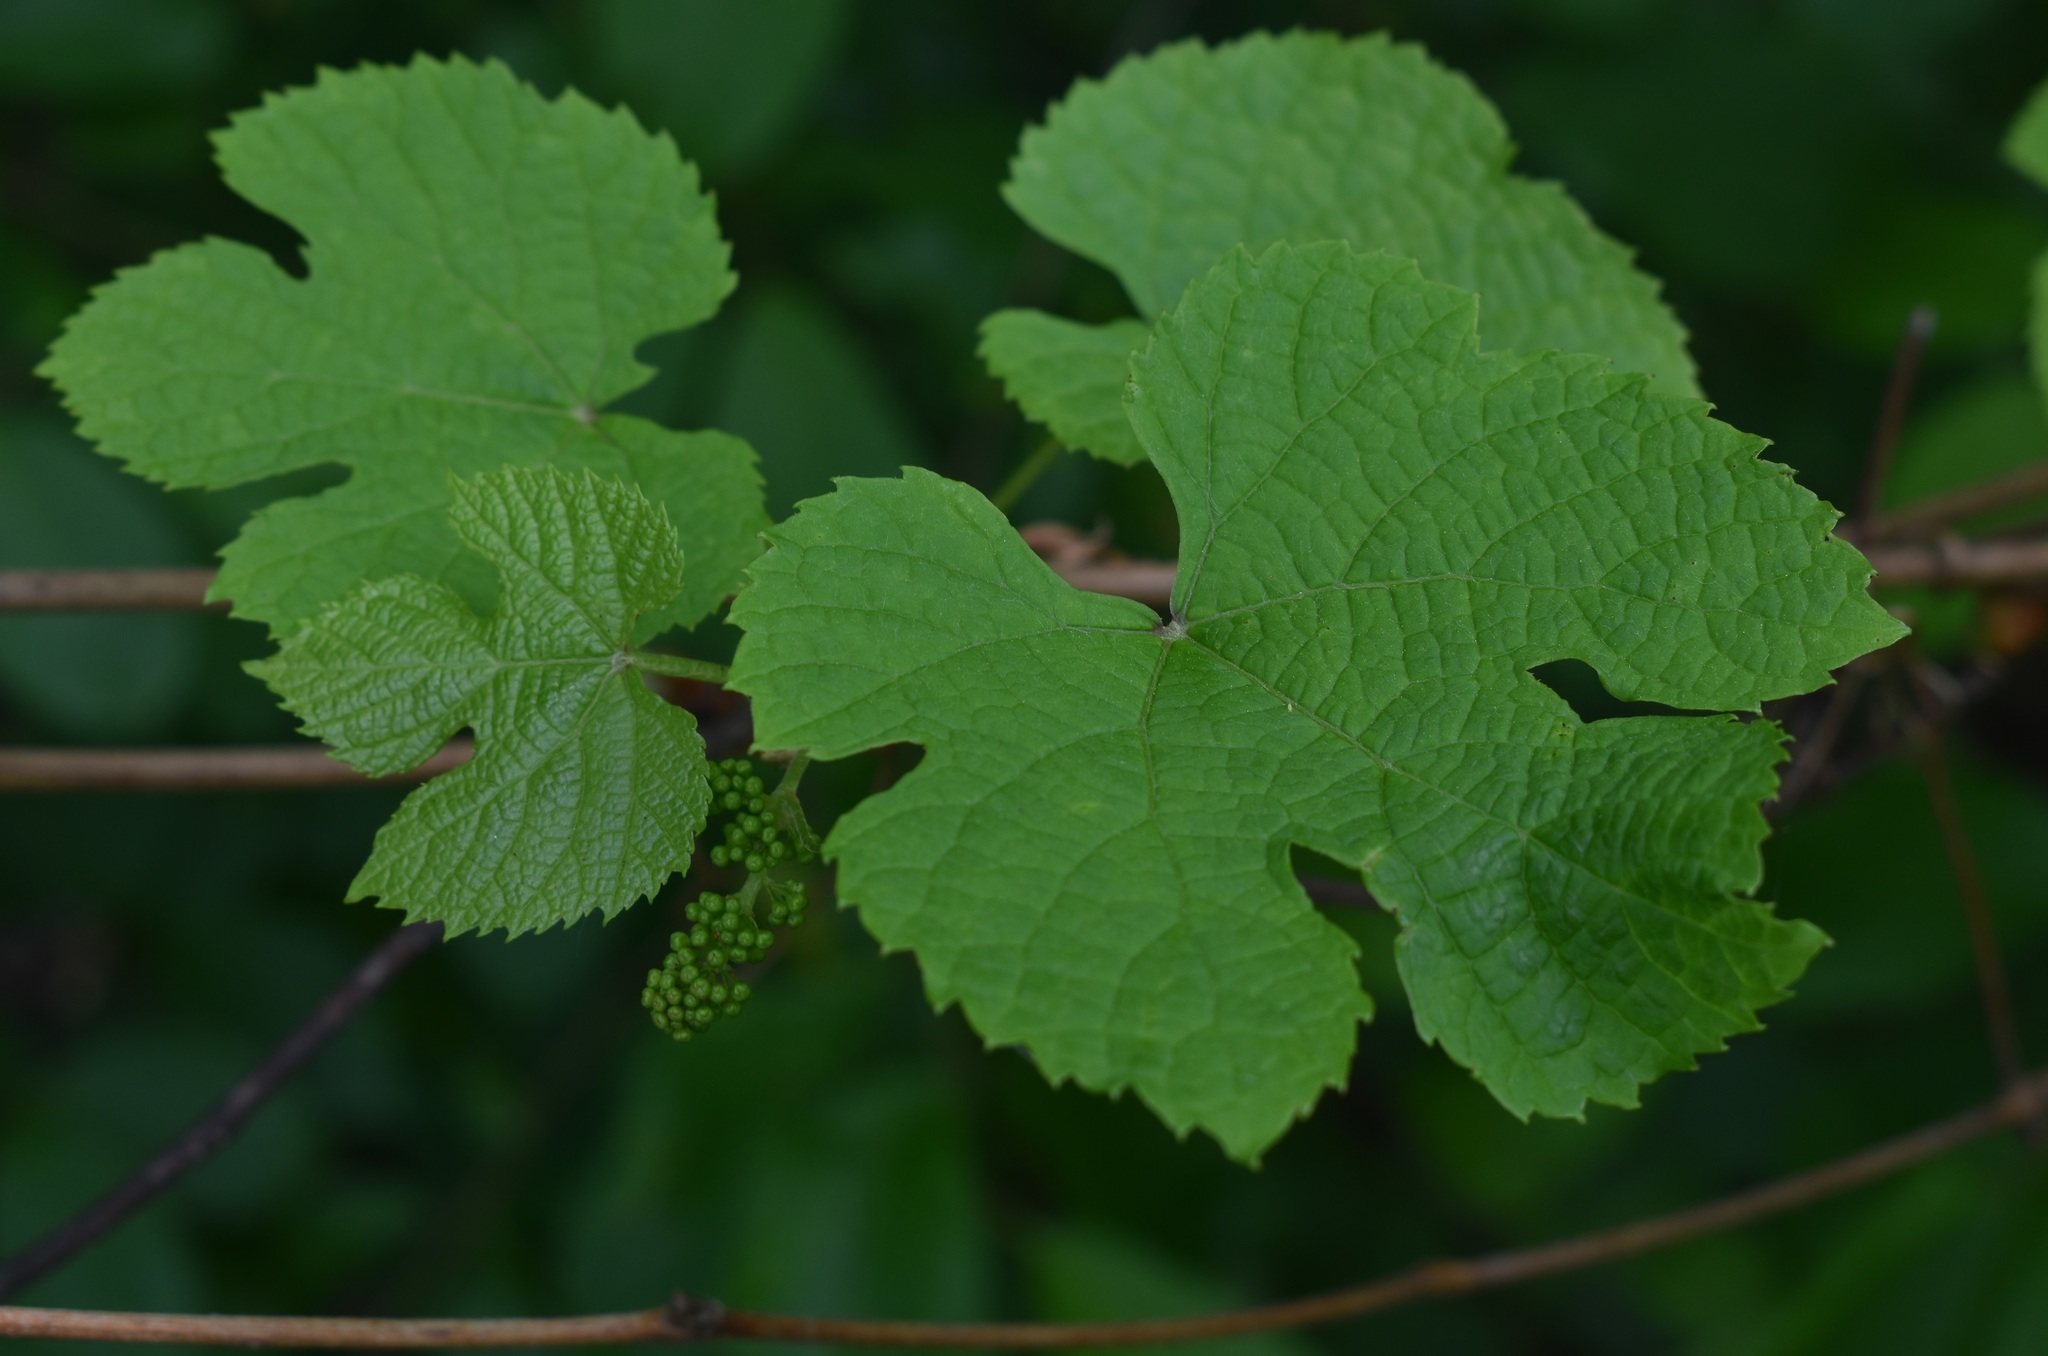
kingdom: Plantae
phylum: Tracheophyta
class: Magnoliopsida
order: Vitales
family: Vitaceae
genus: Vitis
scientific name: Vitis amurensis
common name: Amur grape
